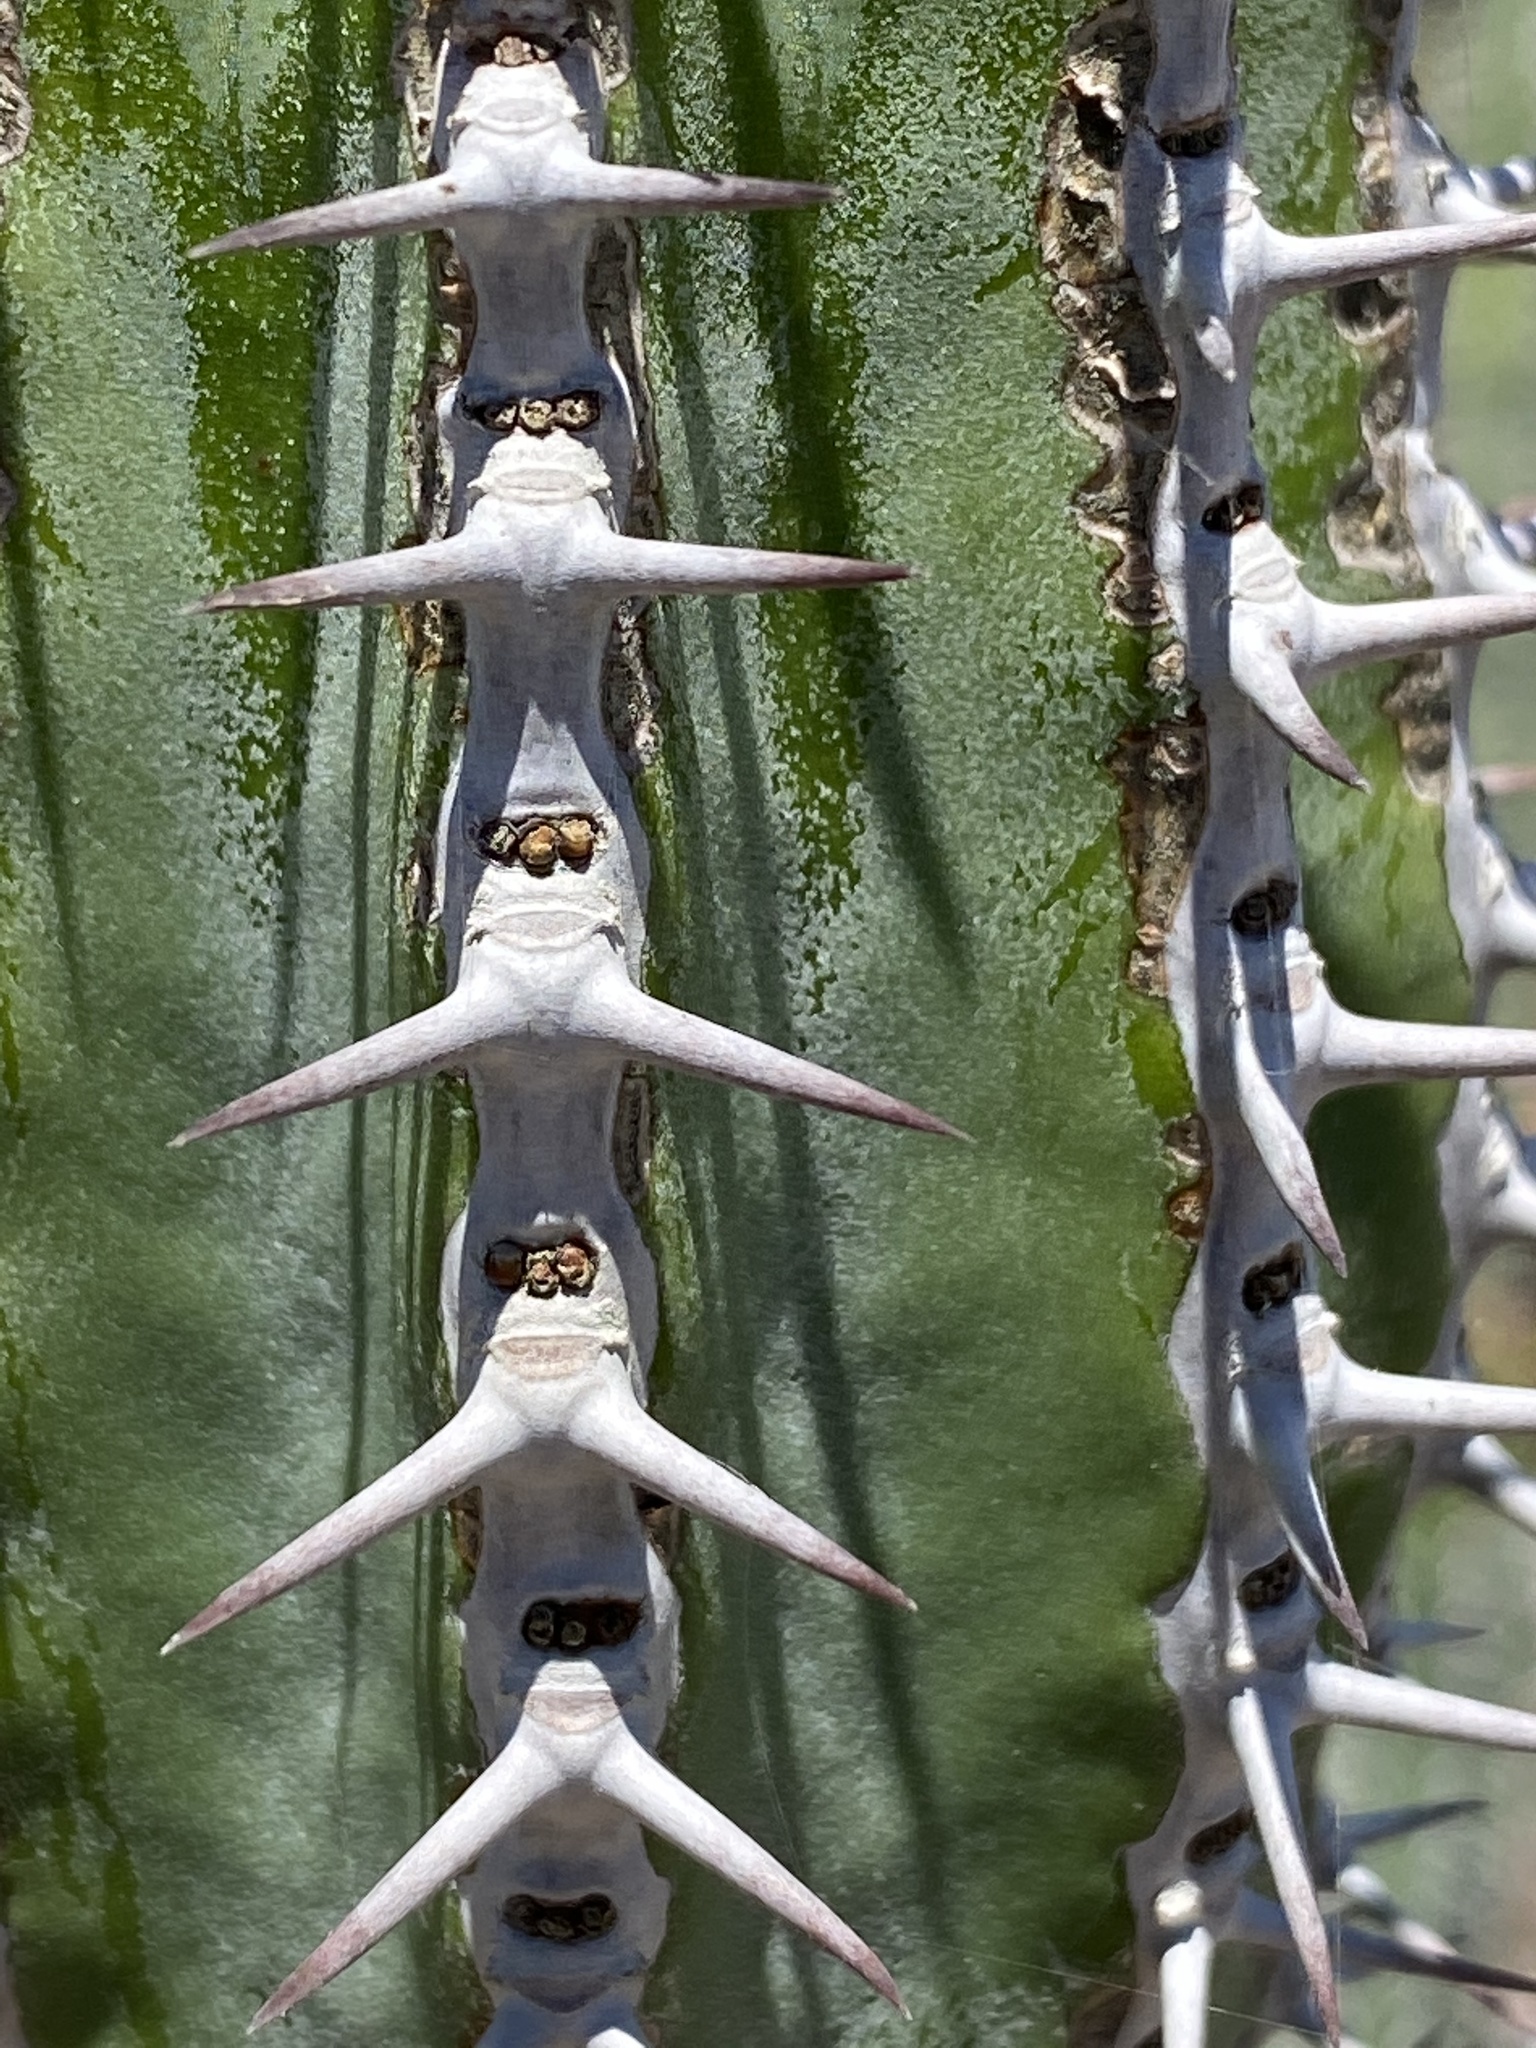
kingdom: Plantae
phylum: Tracheophyta
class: Magnoliopsida
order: Malpighiales
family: Euphorbiaceae
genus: Euphorbia
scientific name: Euphorbia avasmontana
